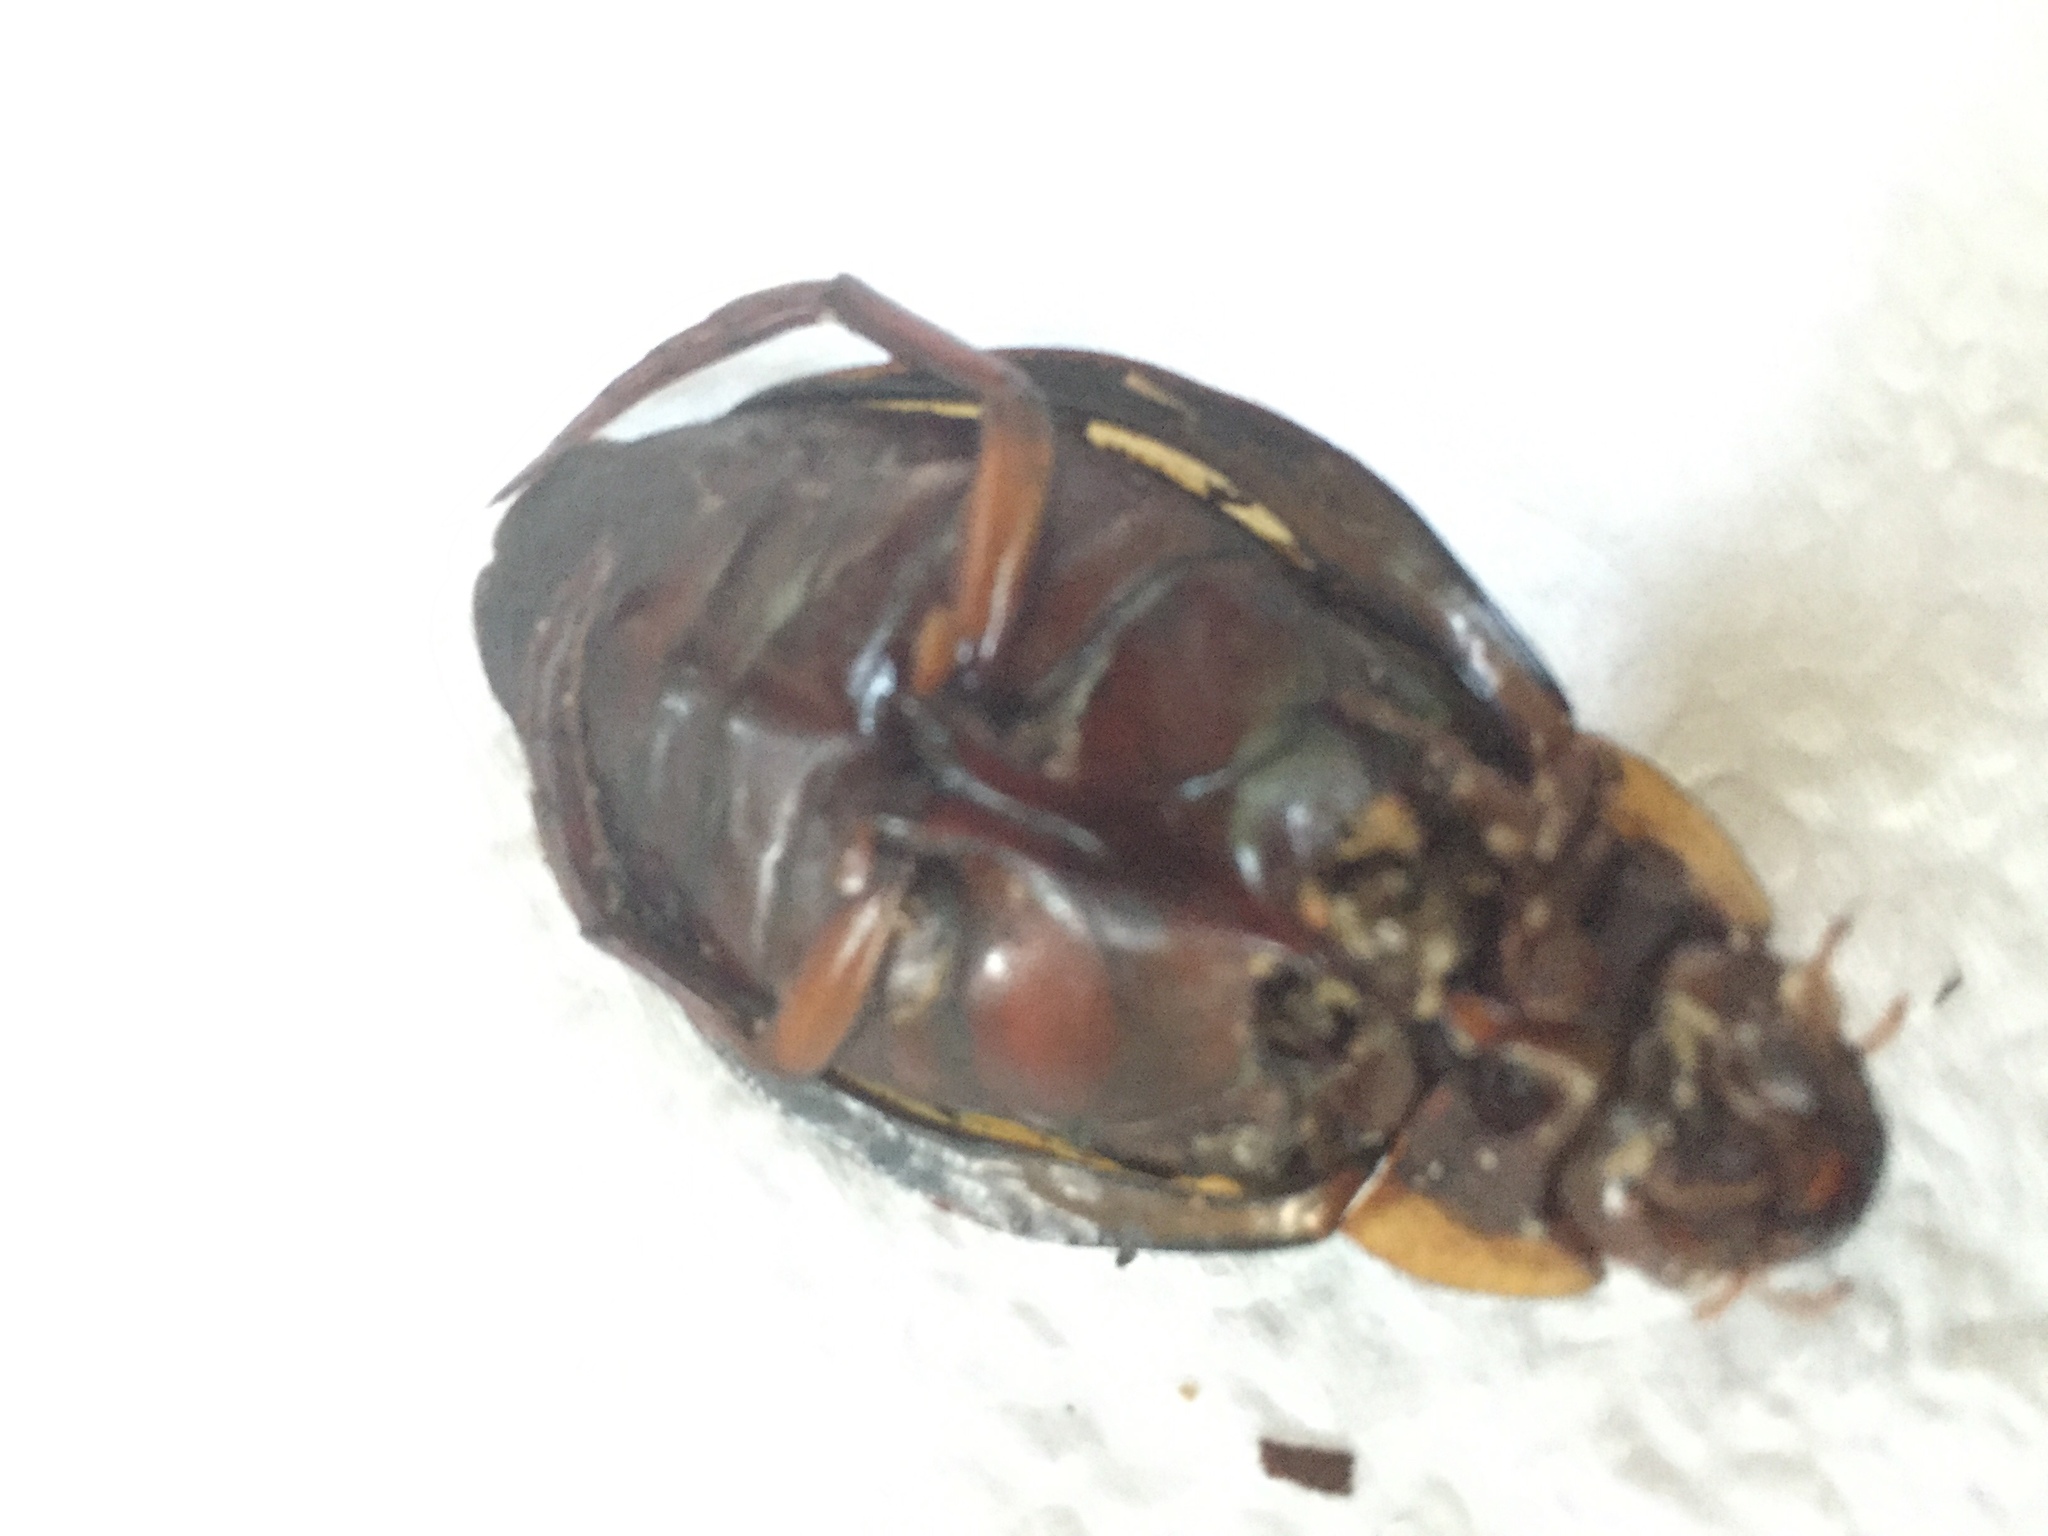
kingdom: Animalia
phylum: Arthropoda
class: Insecta
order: Coleoptera
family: Dytiscidae
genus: Dytiscus
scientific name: Dytiscus latissimus
